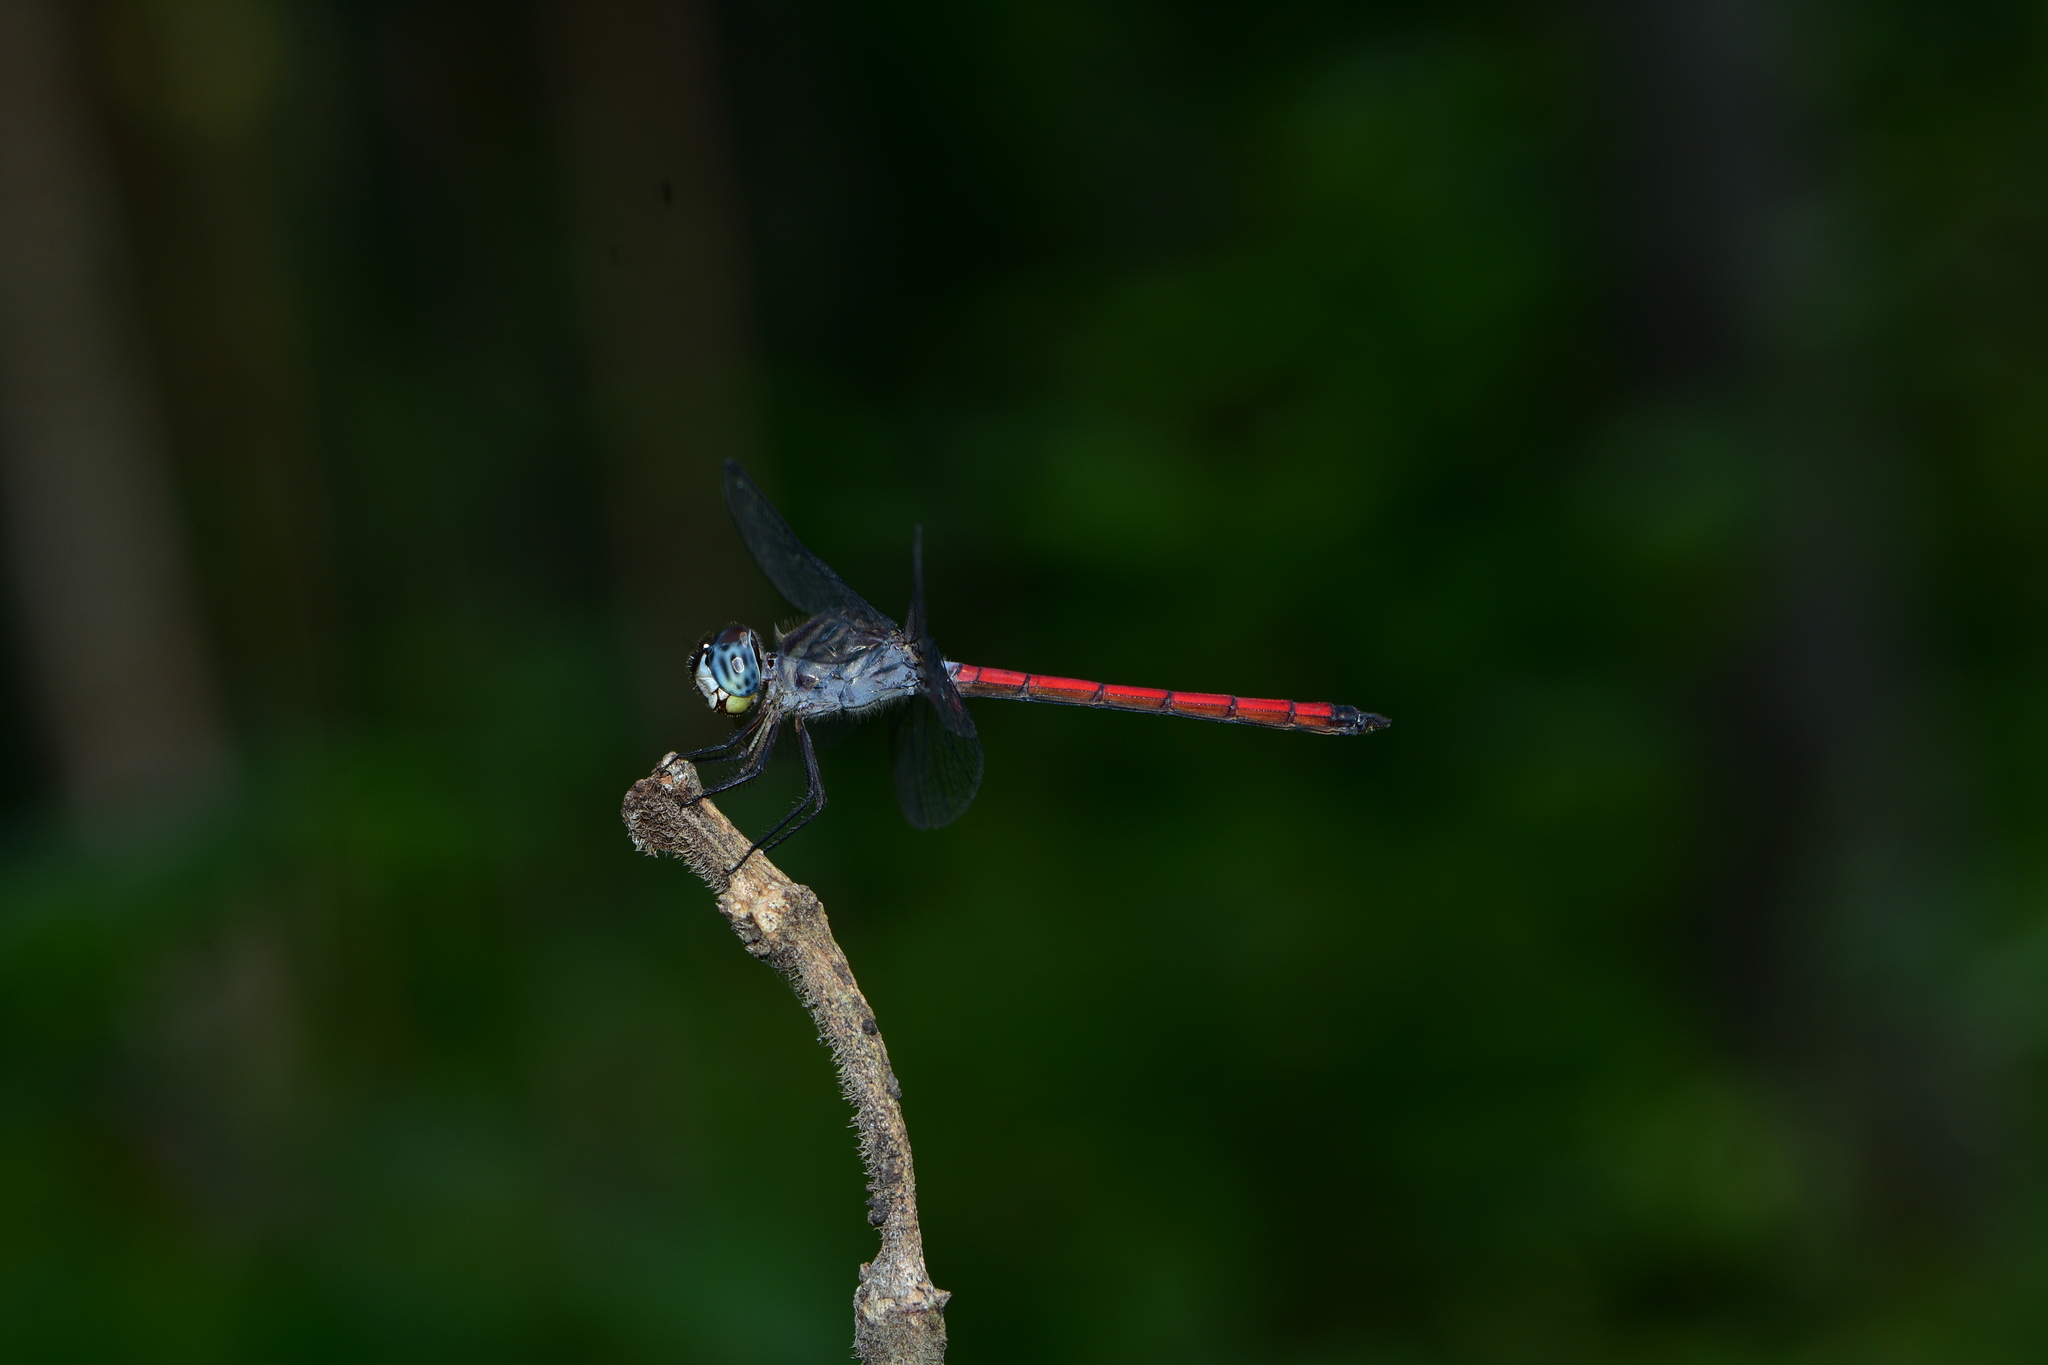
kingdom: Animalia
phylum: Arthropoda
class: Insecta
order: Odonata
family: Libellulidae
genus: Lathrecista
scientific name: Lathrecista asiatica
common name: Scarlet grenadier
